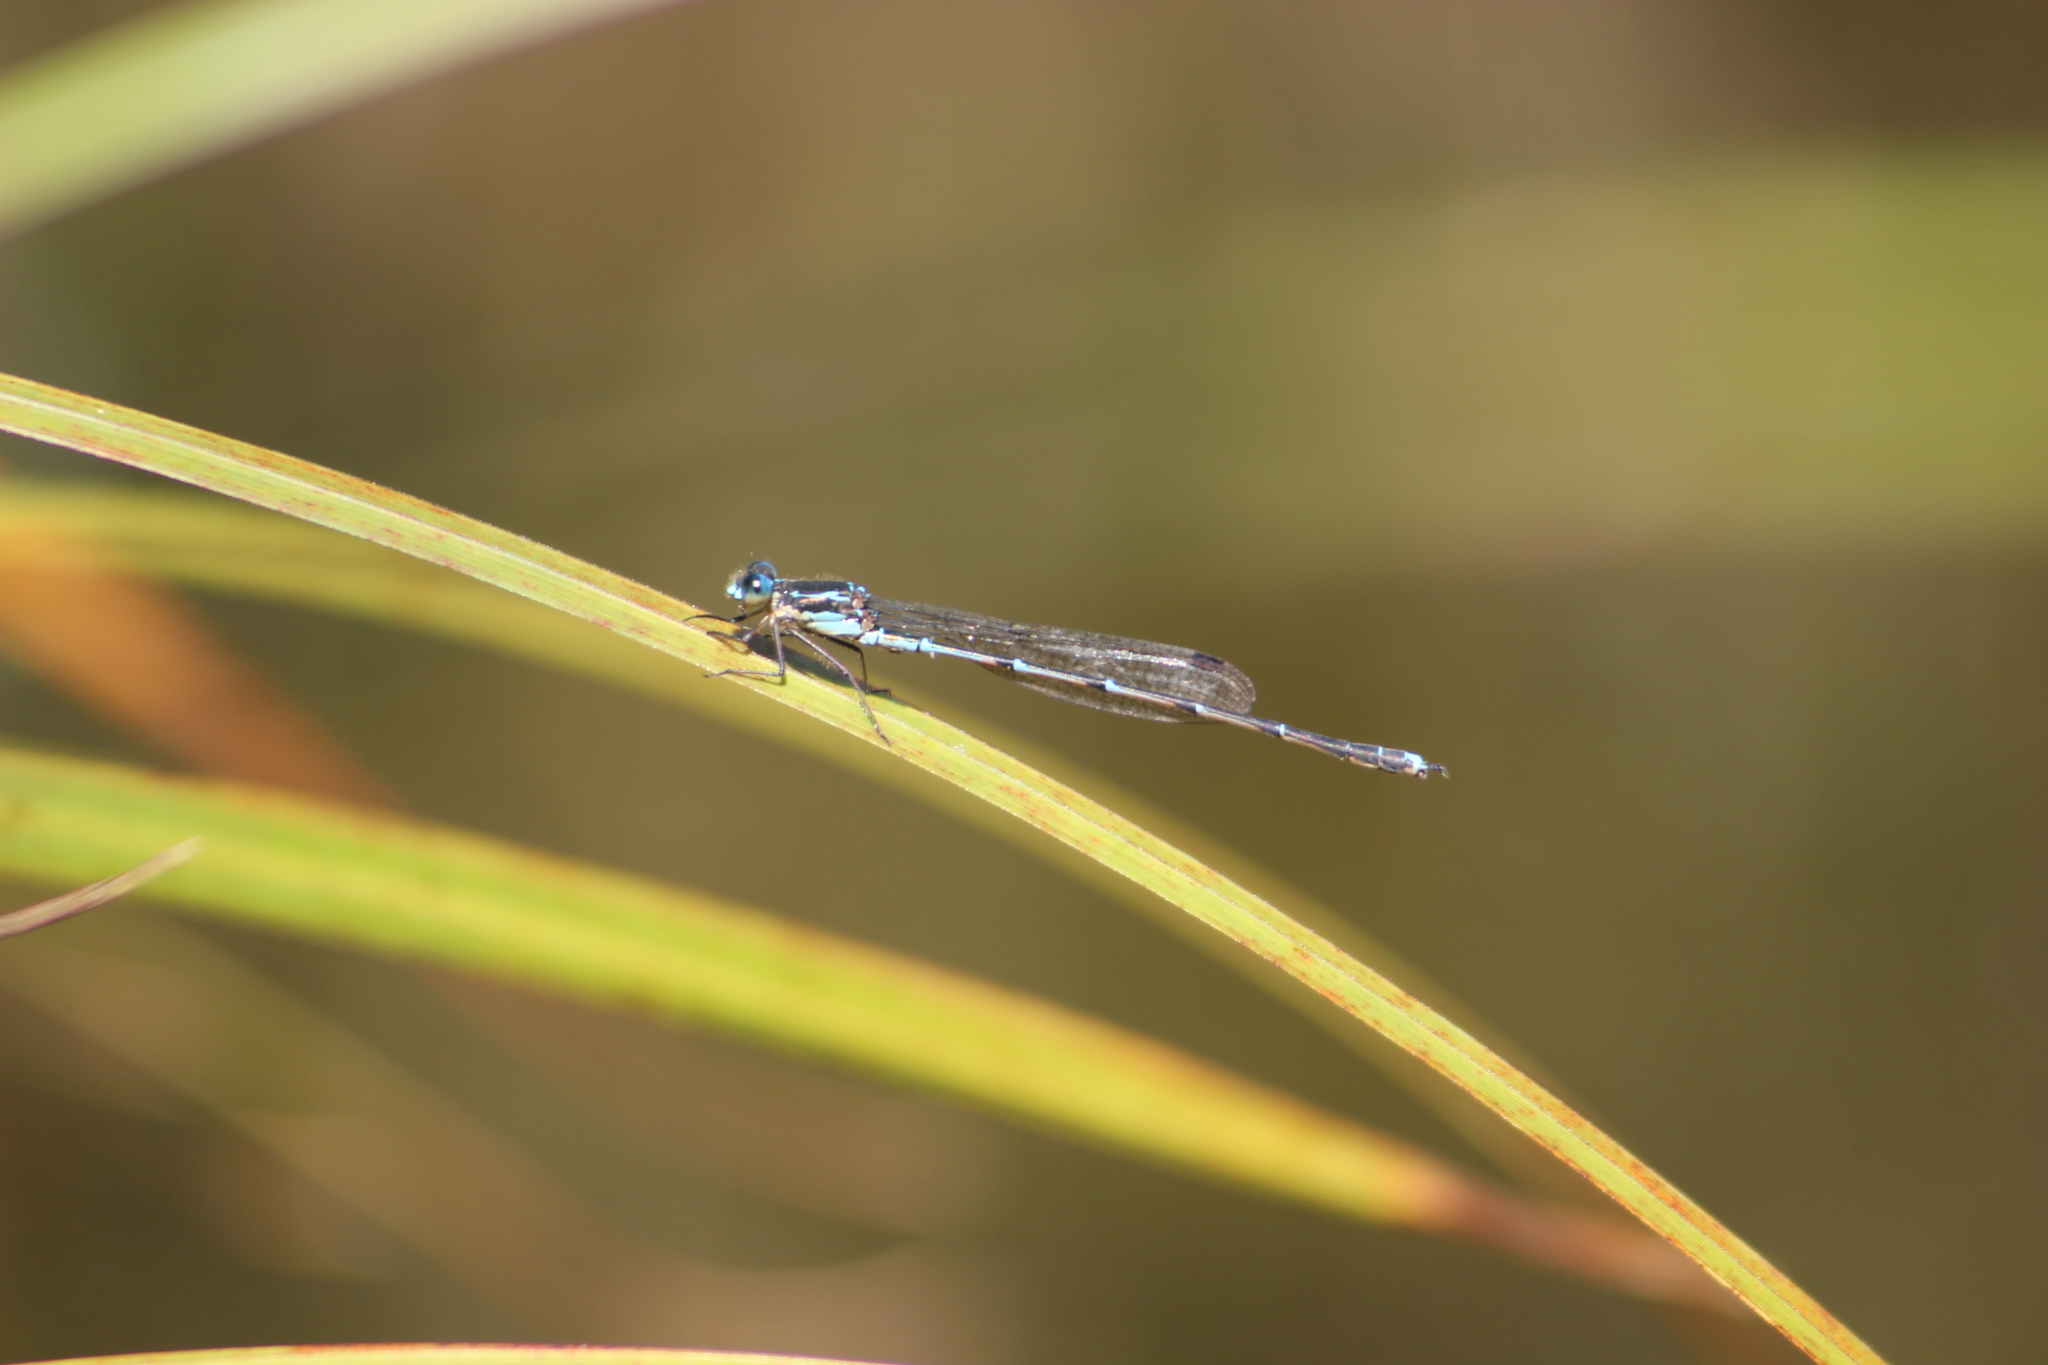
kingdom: Animalia
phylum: Arthropoda
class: Insecta
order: Odonata
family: Lestidae
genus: Austrolestes
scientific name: Austrolestes colensonis
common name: Blue damselfly
